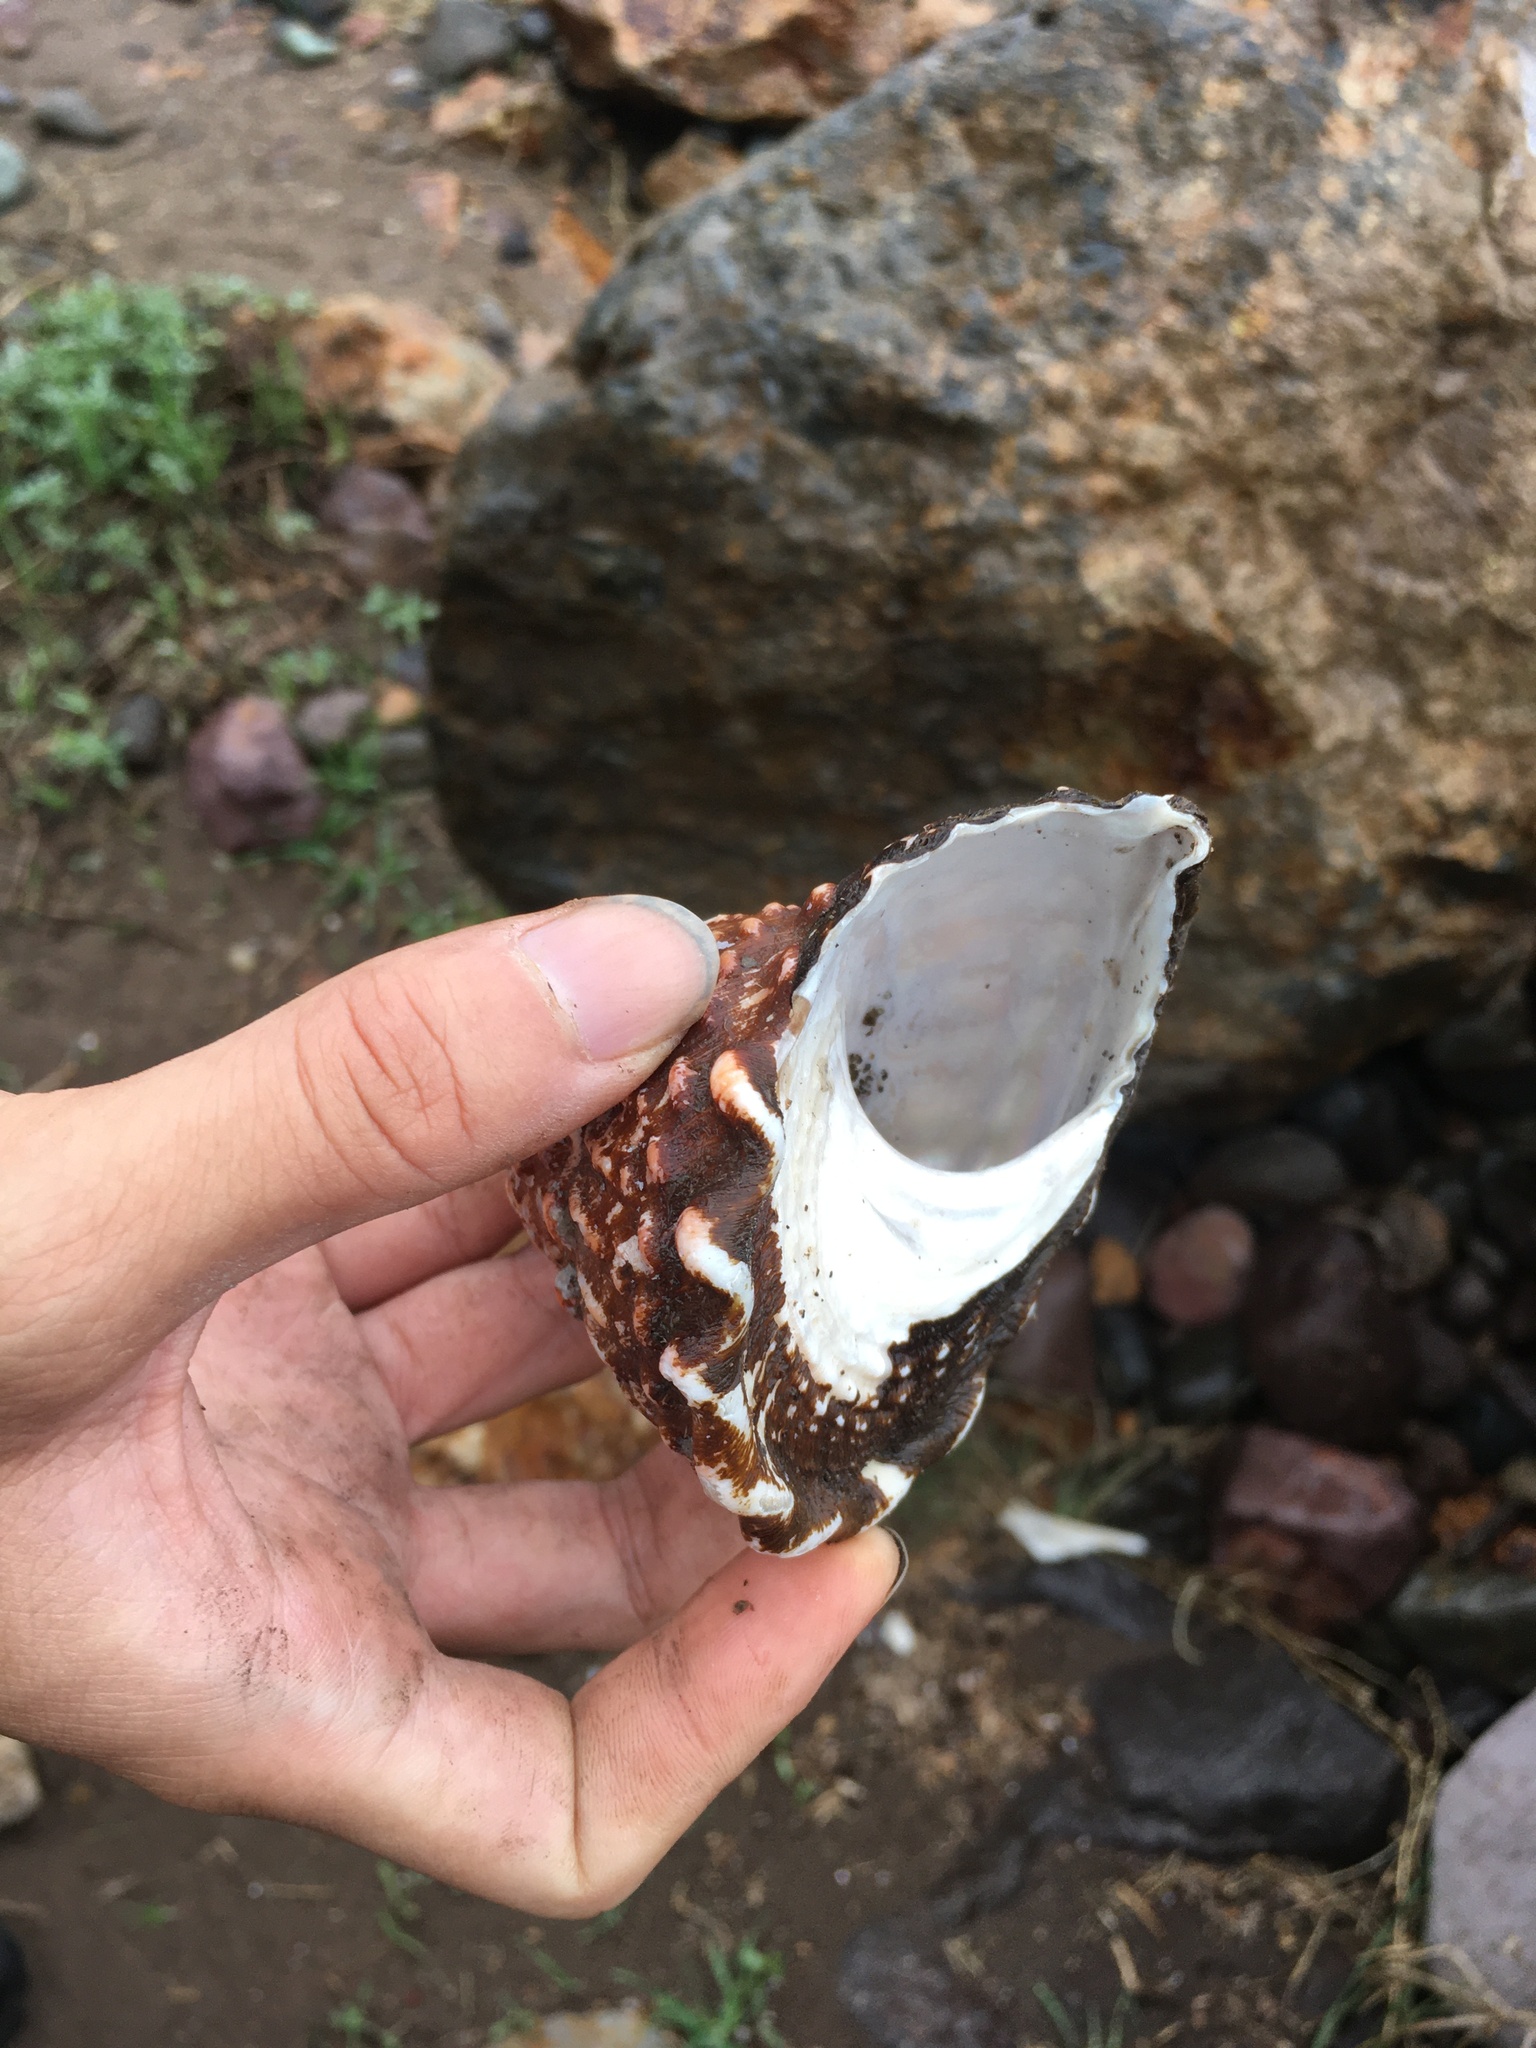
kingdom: Animalia
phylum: Mollusca
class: Gastropoda
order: Trochida
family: Turbinidae
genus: Megastraea
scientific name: Megastraea undosa
